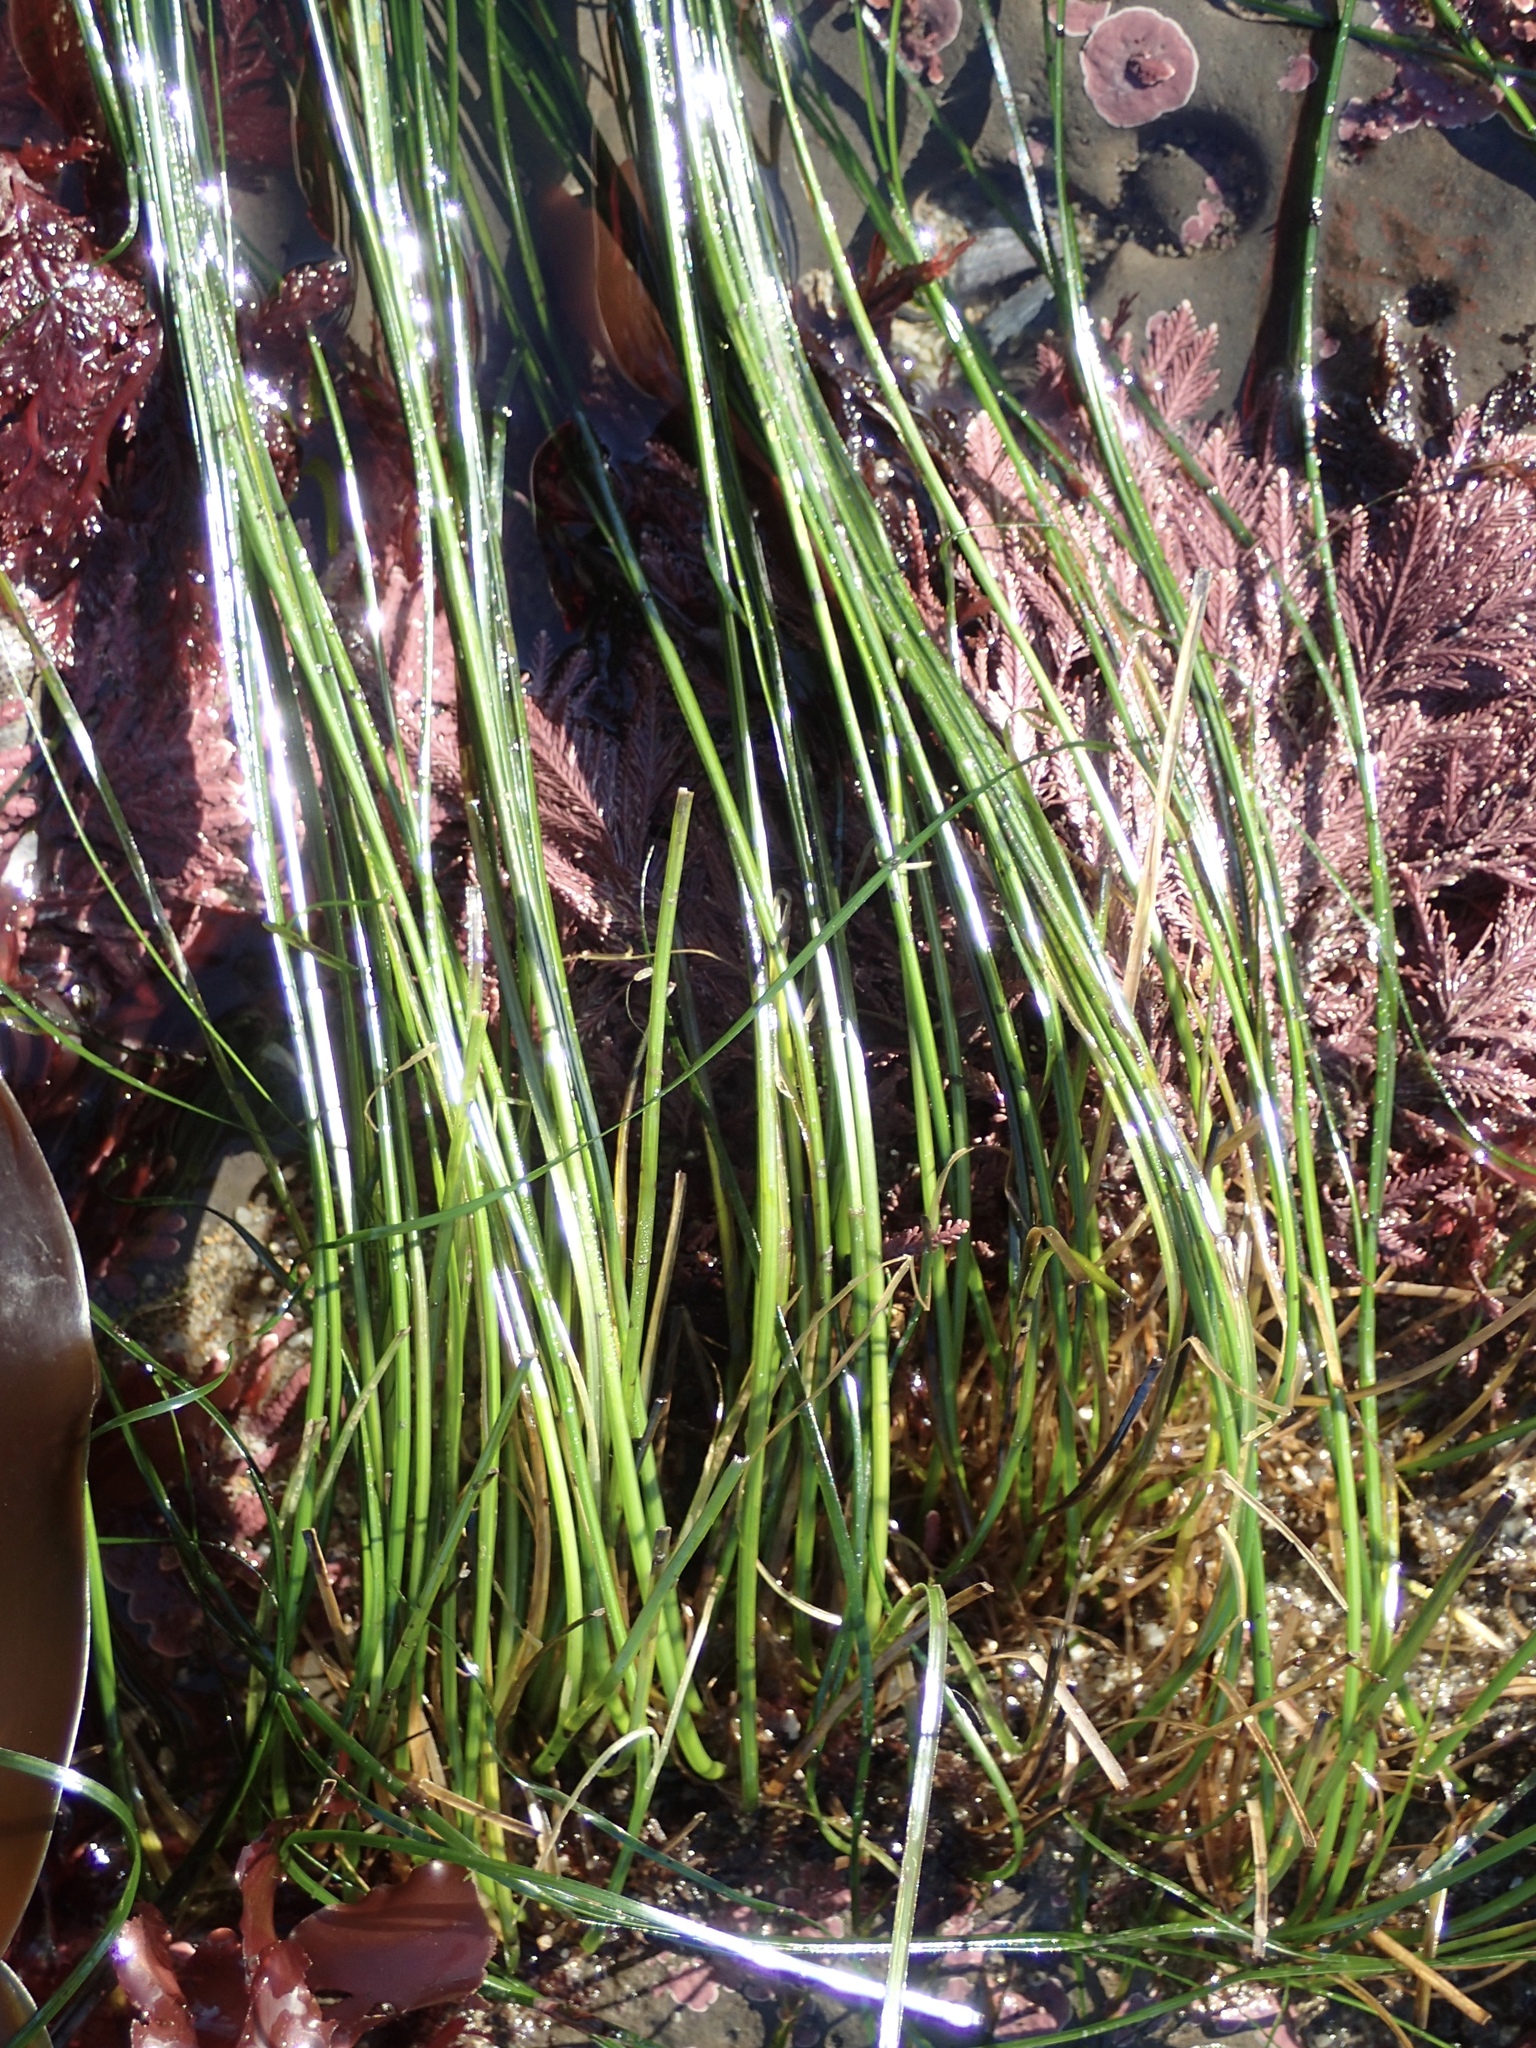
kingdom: Plantae
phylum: Tracheophyta
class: Liliopsida
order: Alismatales
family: Zosteraceae
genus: Phyllospadix
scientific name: Phyllospadix torreyi
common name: Surfgrass
